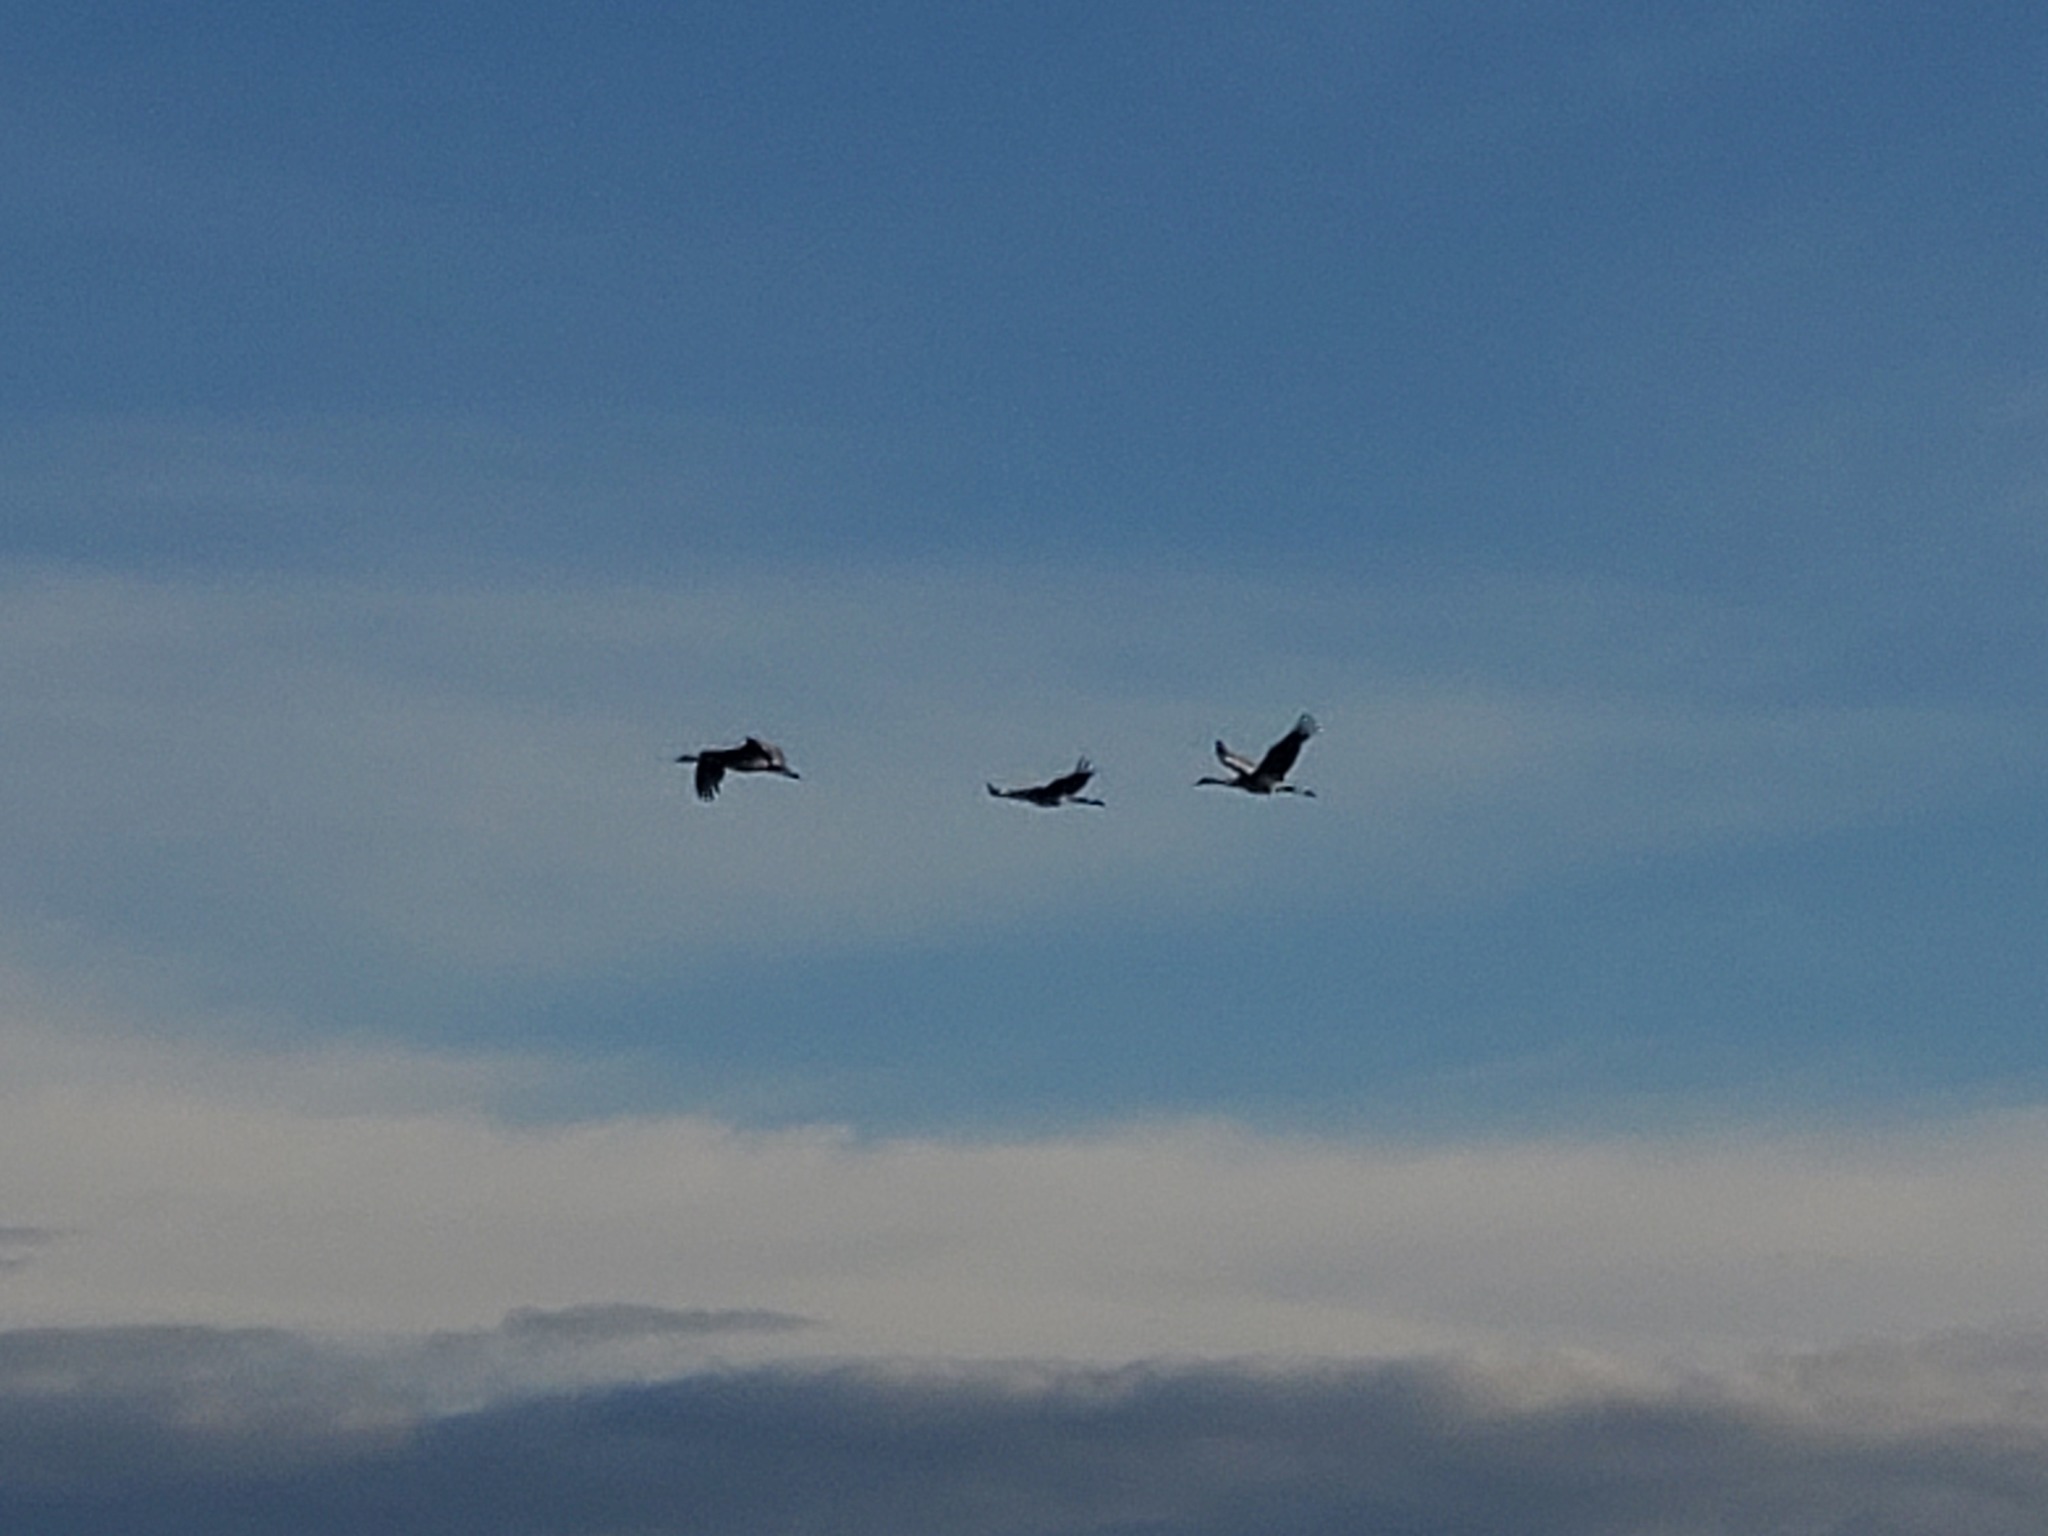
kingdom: Animalia
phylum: Chordata
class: Aves
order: Gruiformes
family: Gruidae
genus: Grus
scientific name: Grus canadensis
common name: Sandhill crane
